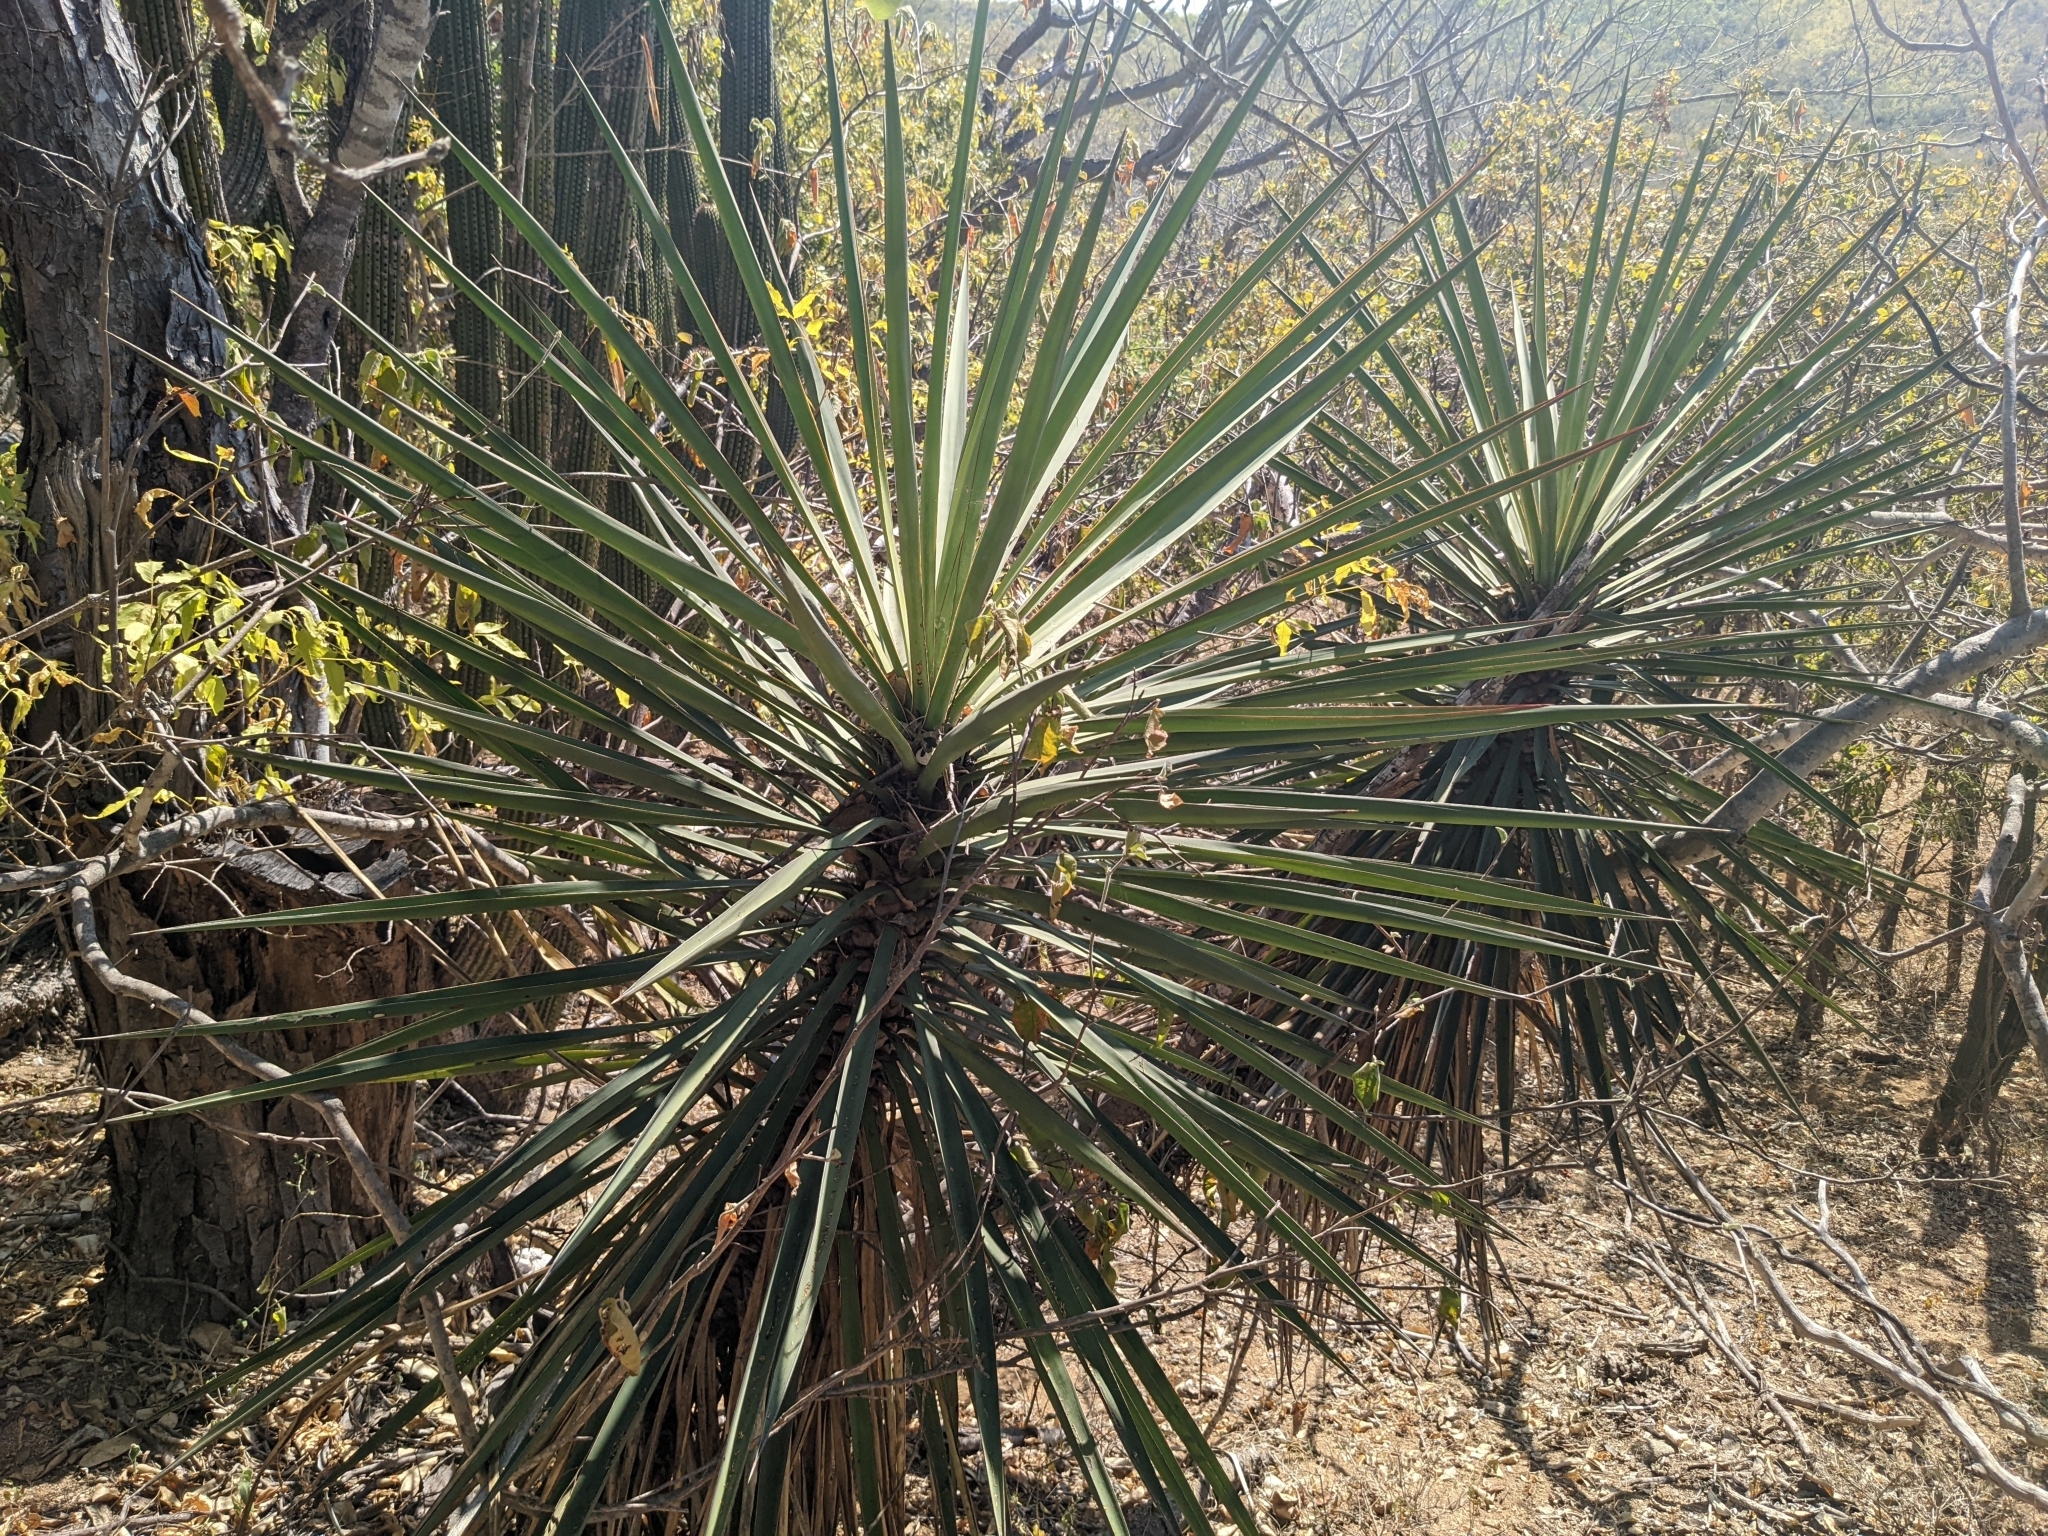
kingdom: Plantae
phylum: Tracheophyta
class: Liliopsida
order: Asparagales
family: Asparagaceae
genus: Yucca
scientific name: Yucca capensis
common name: Cape region yucca
